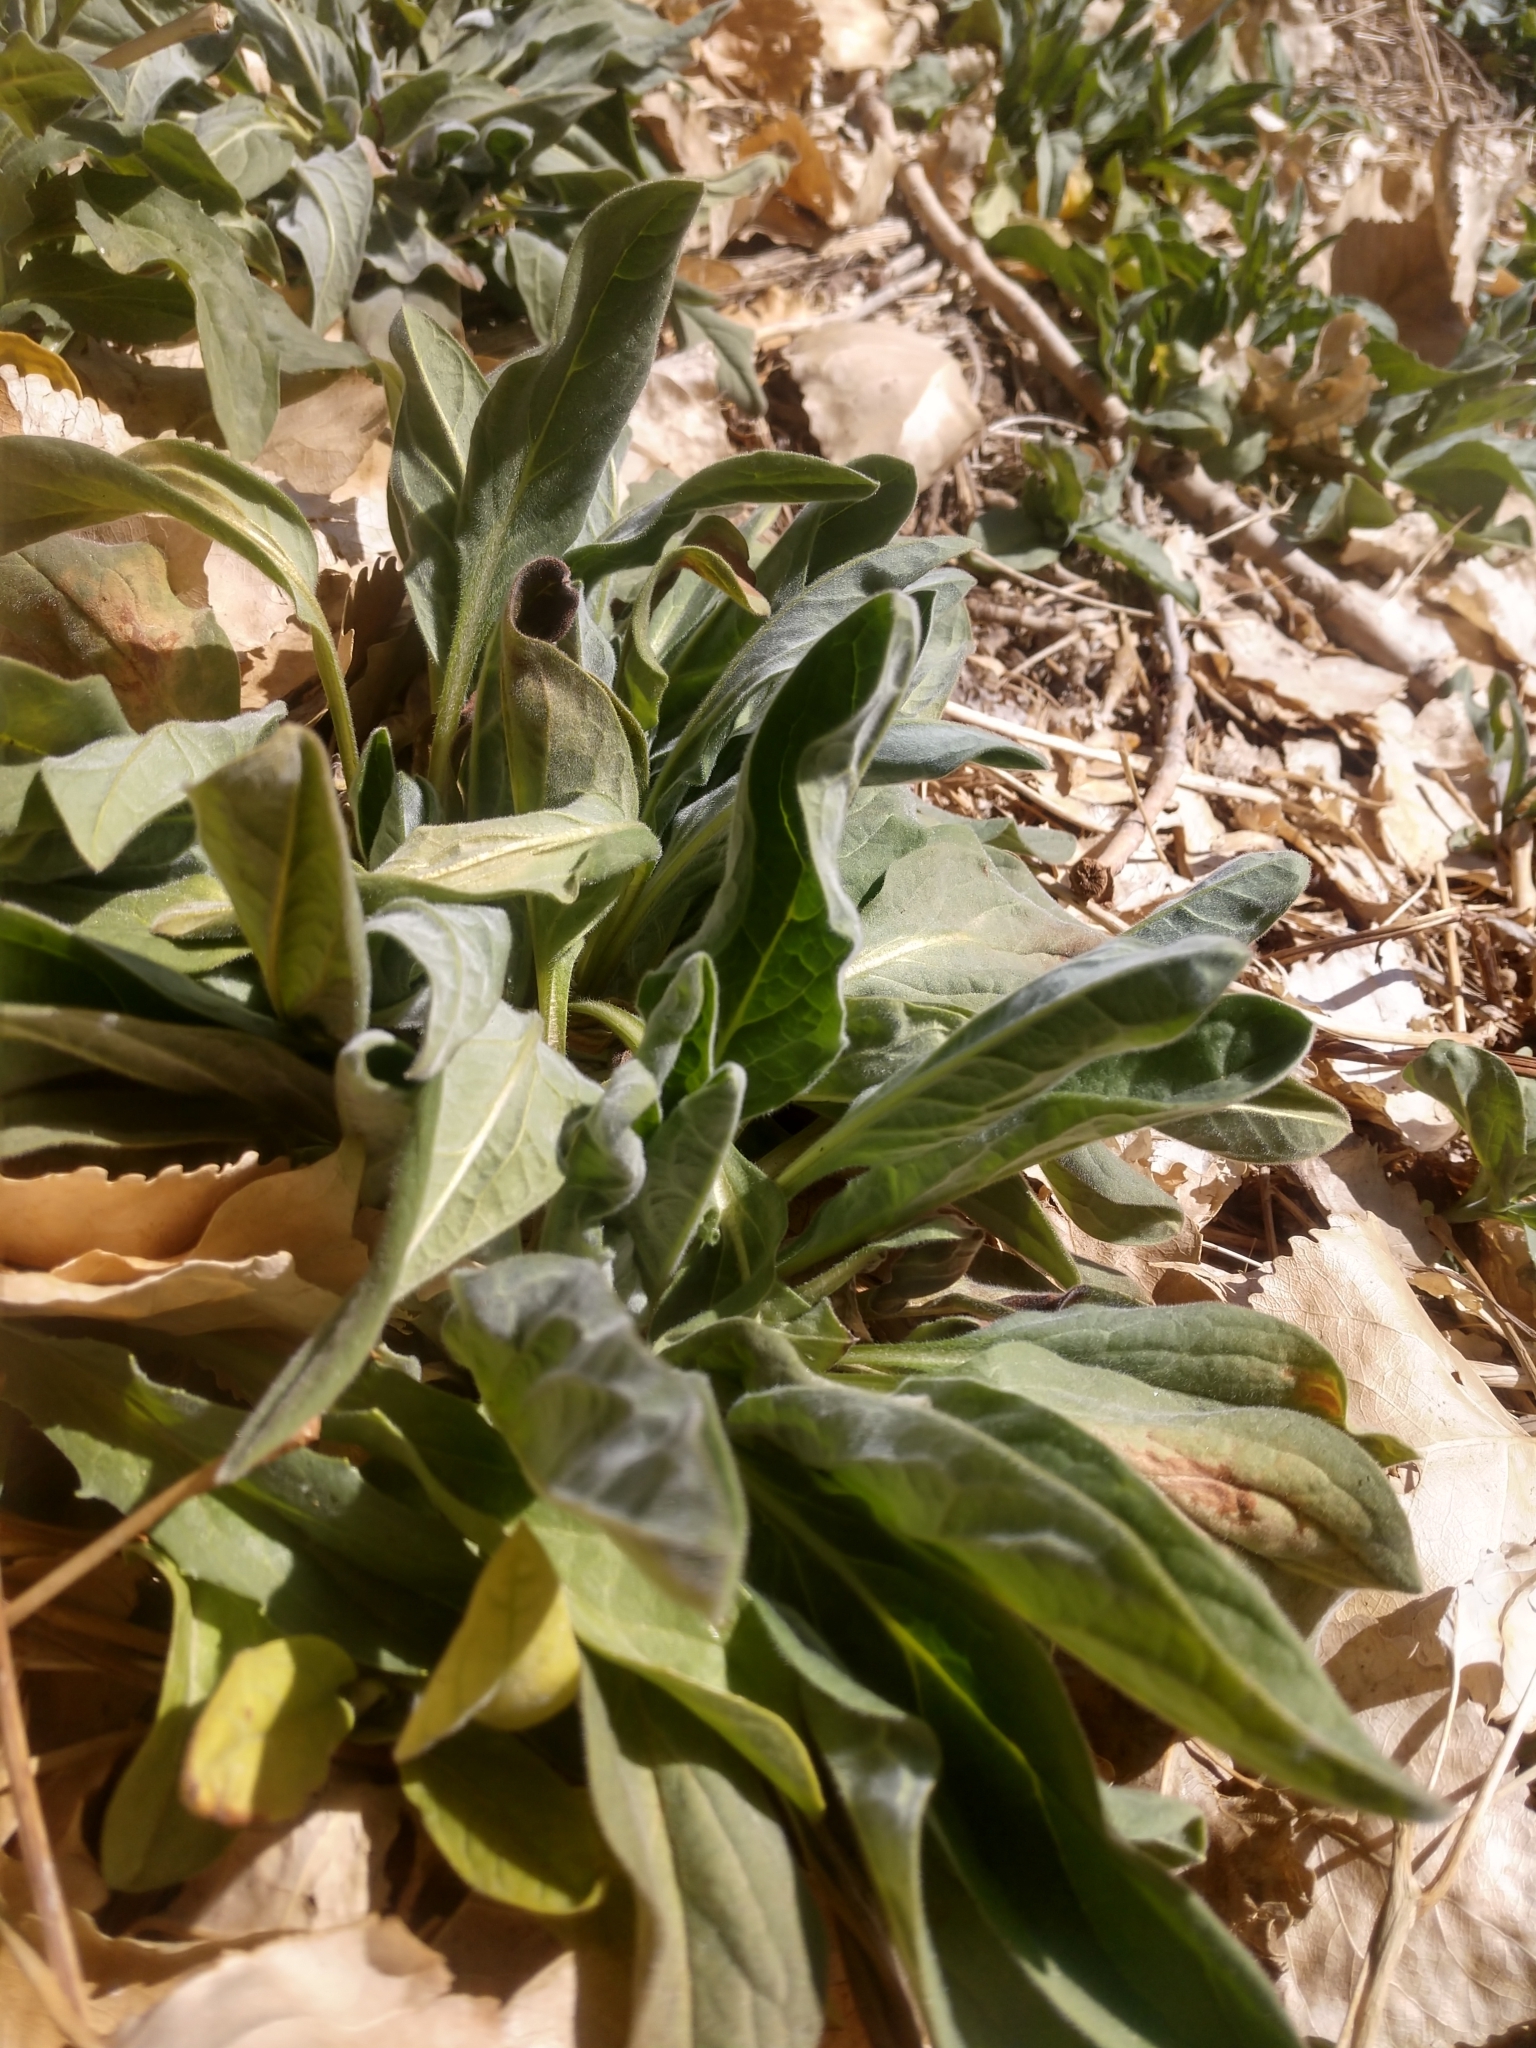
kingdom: Plantae
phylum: Tracheophyta
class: Magnoliopsida
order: Boraginales
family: Boraginaceae
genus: Cynoglossum
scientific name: Cynoglossum officinale
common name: Hound's-tongue
